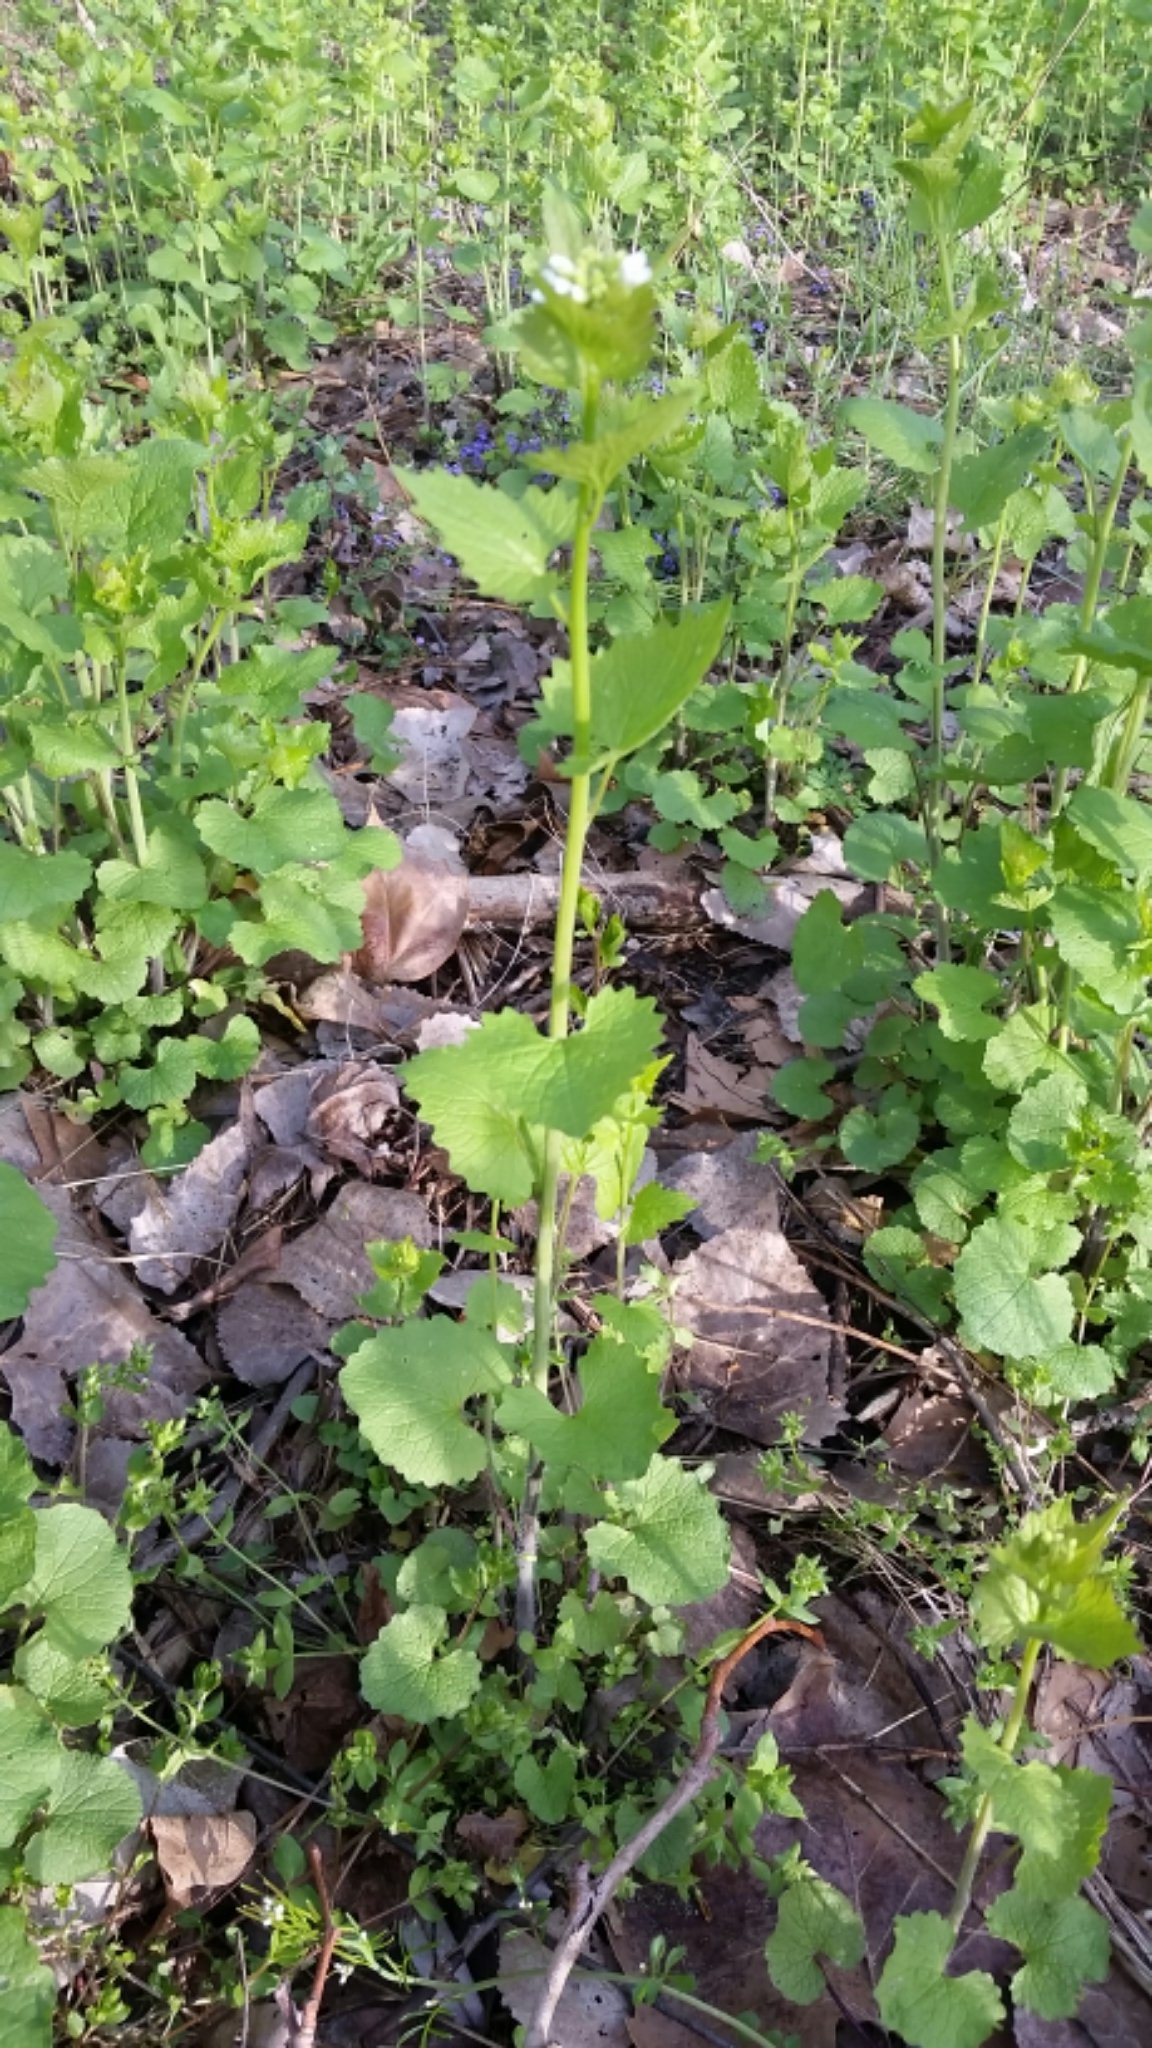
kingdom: Plantae
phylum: Tracheophyta
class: Magnoliopsida
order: Brassicales
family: Brassicaceae
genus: Alliaria
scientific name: Alliaria petiolata
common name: Garlic mustard
